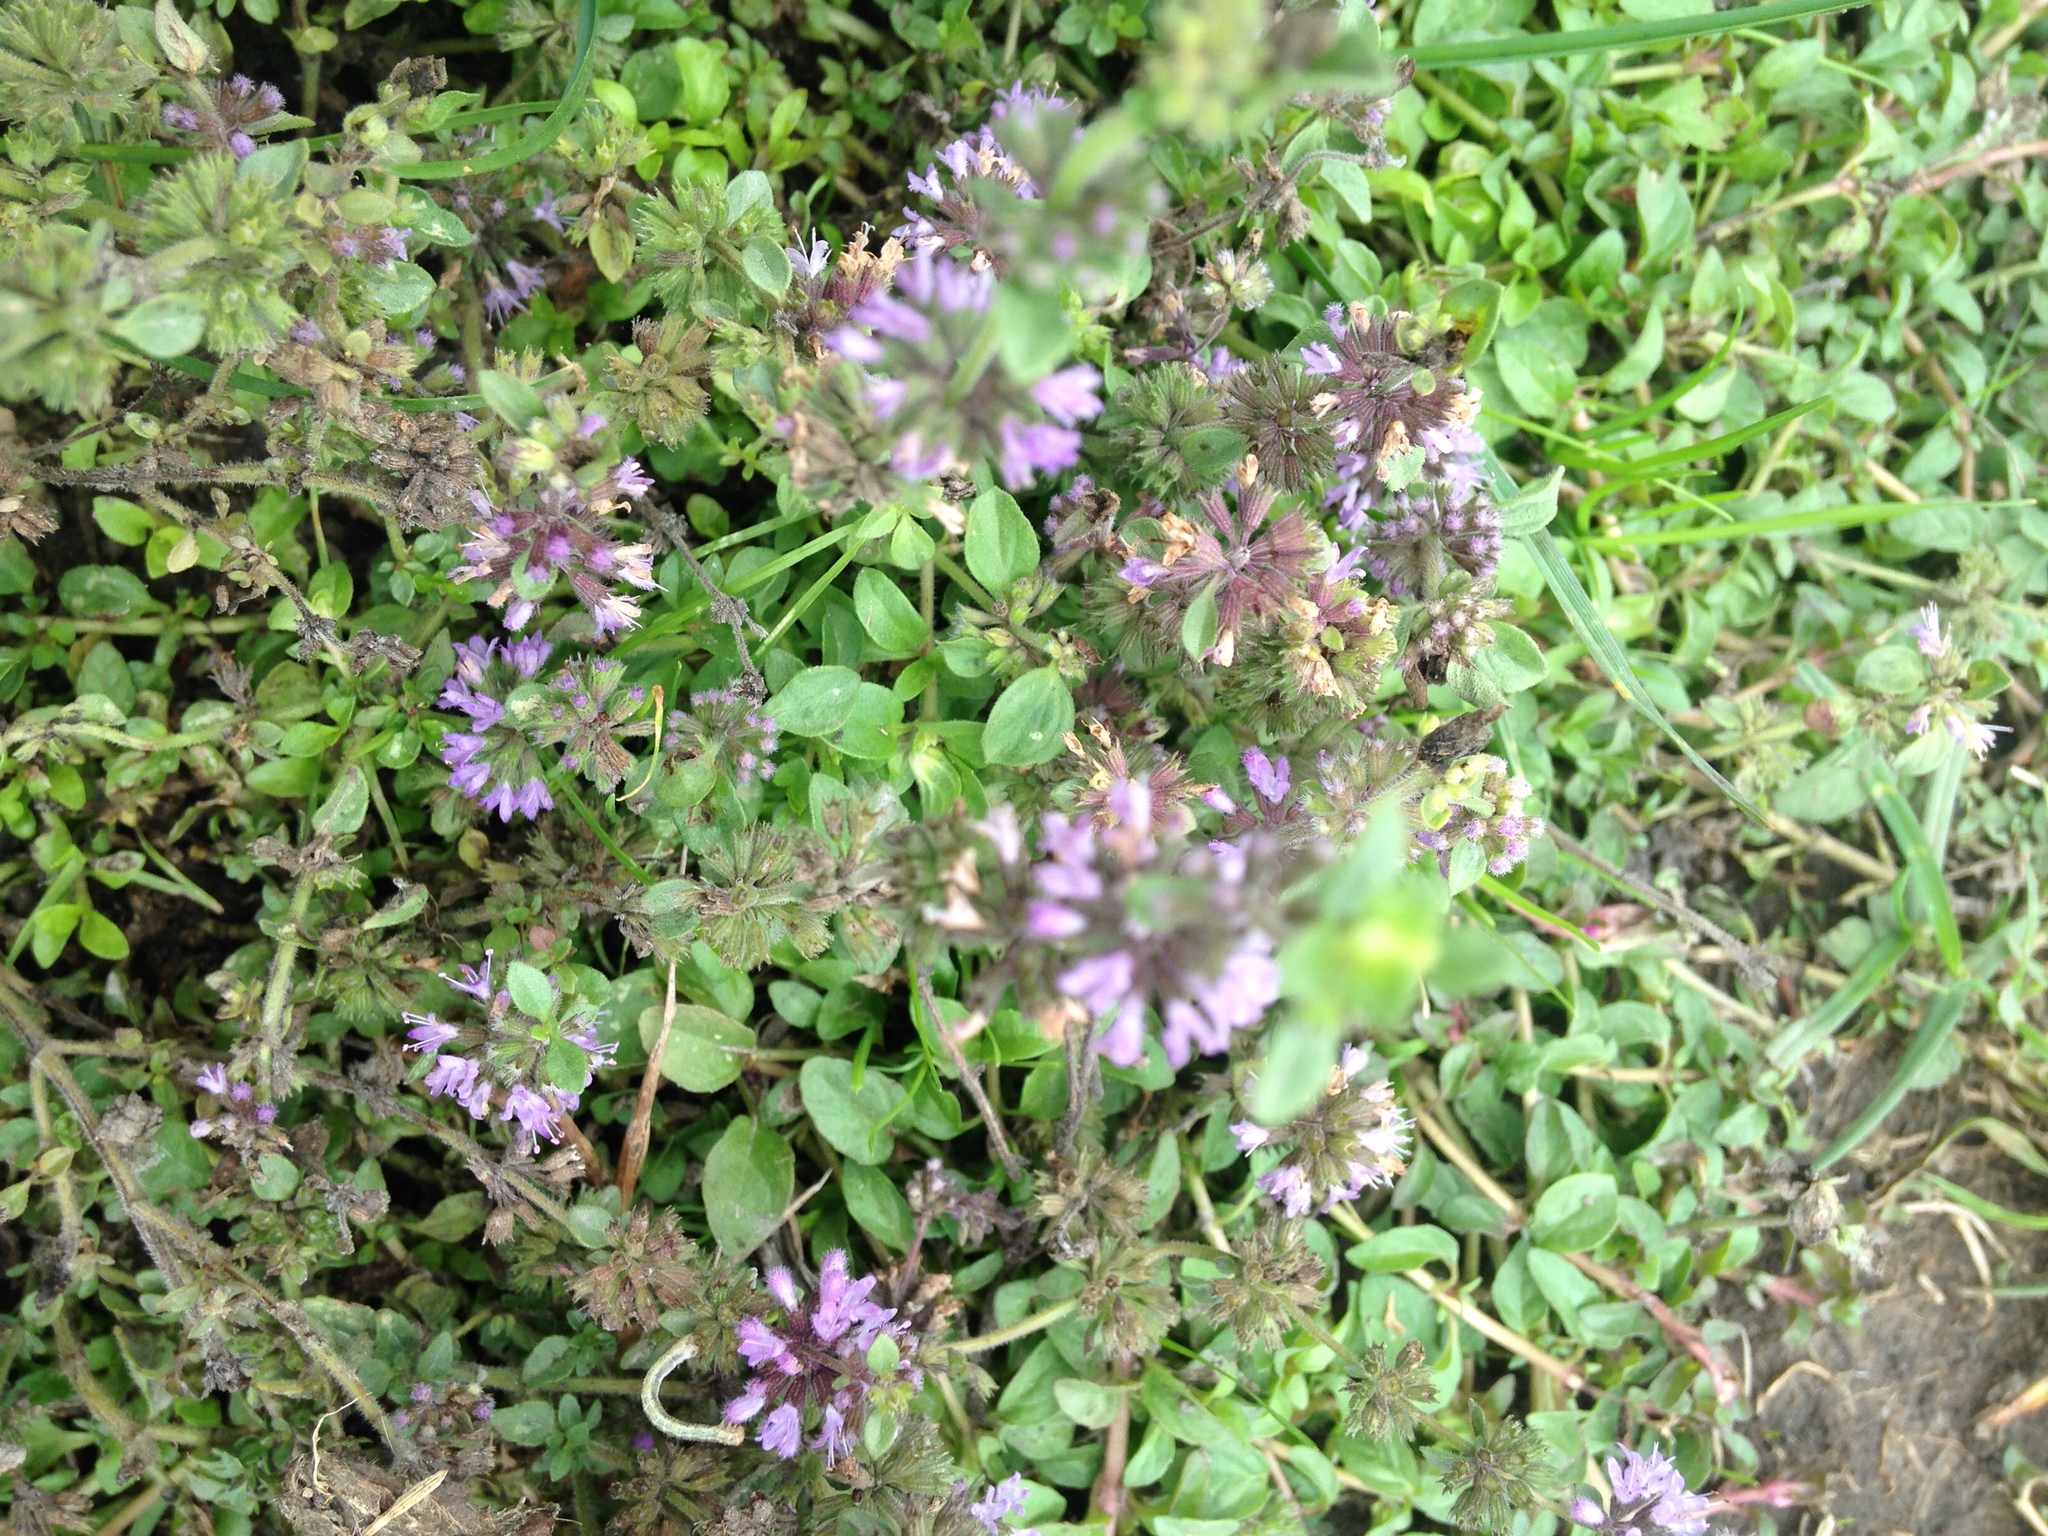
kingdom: Plantae
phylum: Tracheophyta
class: Magnoliopsida
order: Lamiales
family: Lamiaceae
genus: Mentha
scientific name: Mentha pulegium
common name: Pennyroyal
